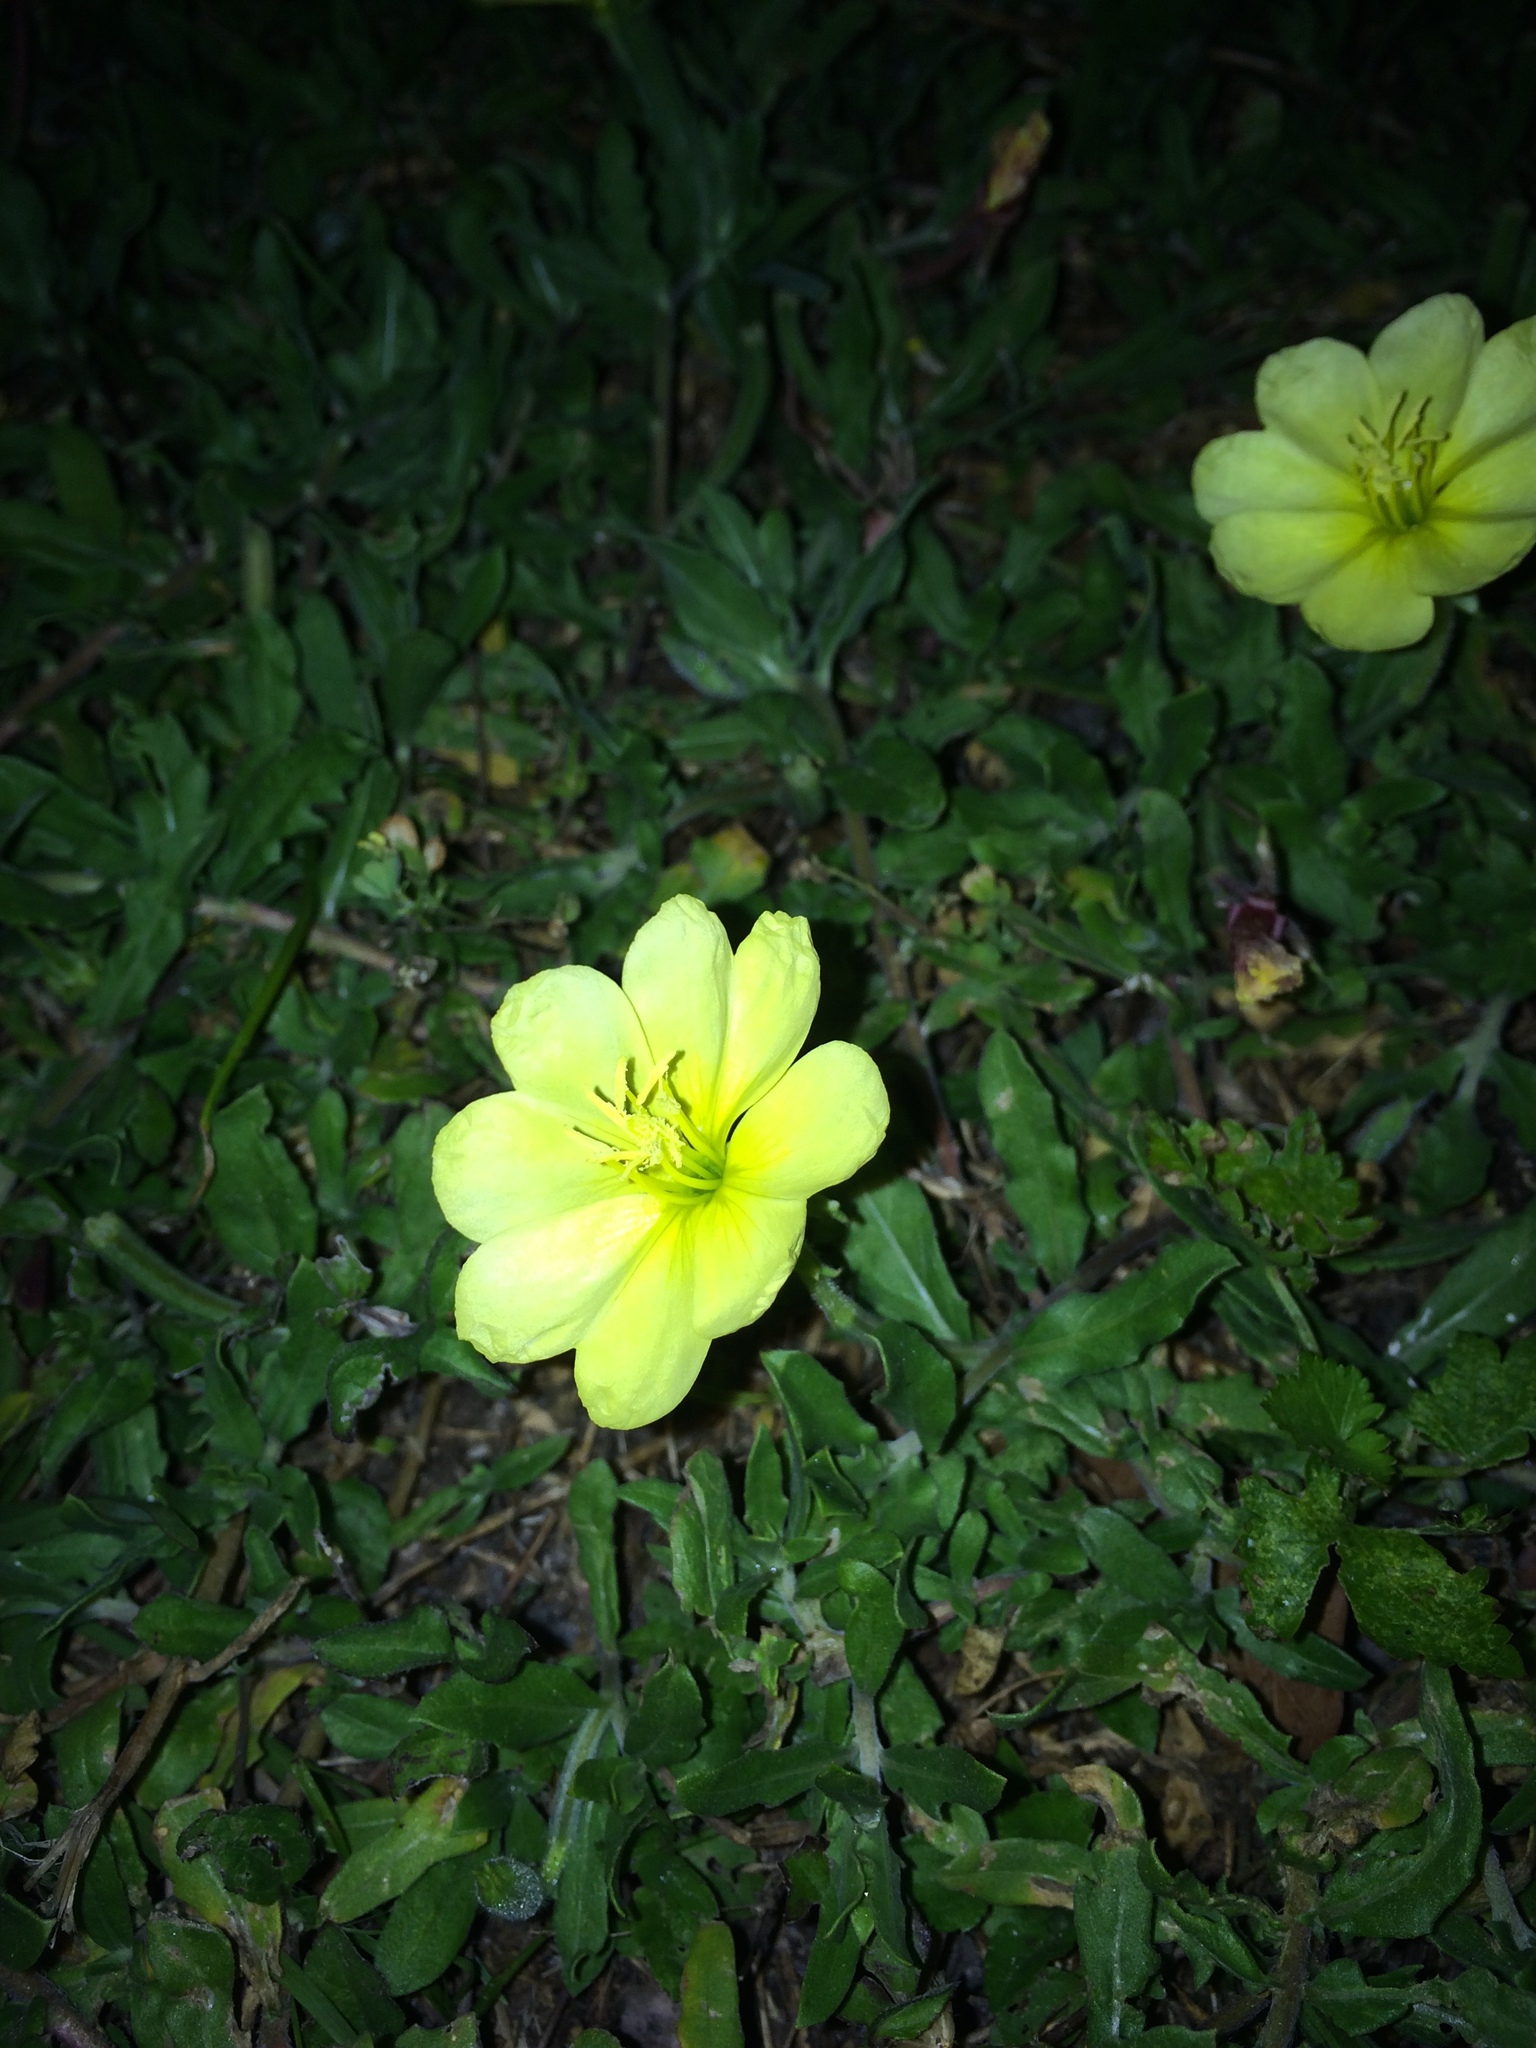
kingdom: Plantae
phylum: Tracheophyta
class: Magnoliopsida
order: Myrtales
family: Onagraceae
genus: Oenothera
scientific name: Oenothera drummondii
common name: Beach evening-primrose
